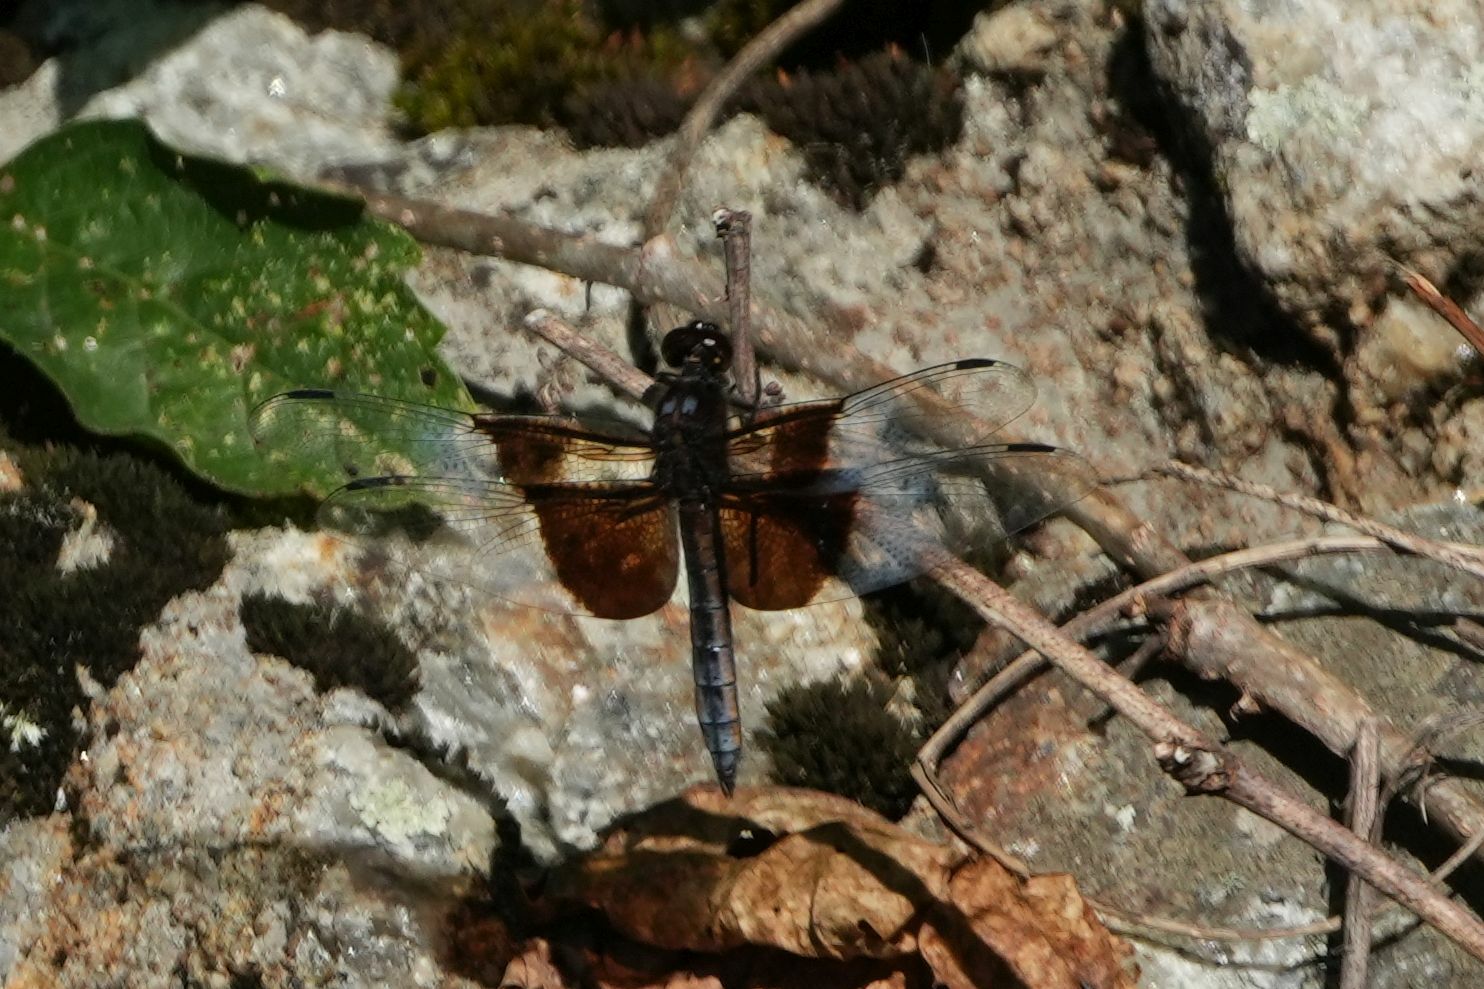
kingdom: Animalia
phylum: Arthropoda
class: Insecta
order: Odonata
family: Libellulidae
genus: Libellula
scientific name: Libellula luctuosa
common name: Widow skimmer
